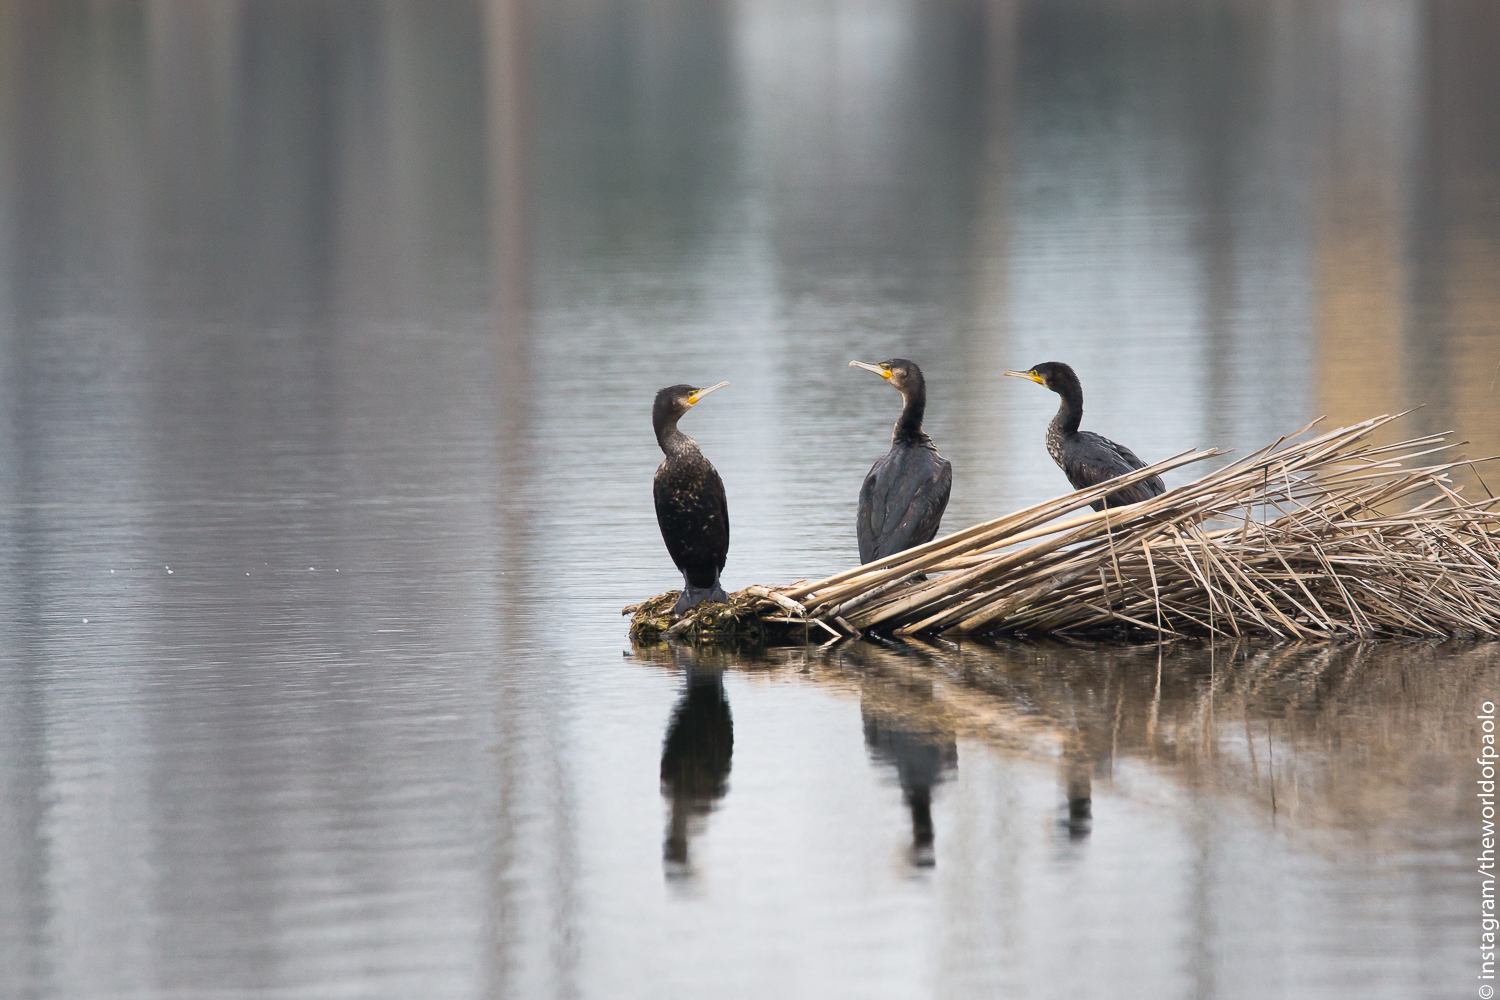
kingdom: Animalia
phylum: Chordata
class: Aves
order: Suliformes
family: Phalacrocoracidae
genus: Phalacrocorax
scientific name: Phalacrocorax carbo
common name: Great cormorant
